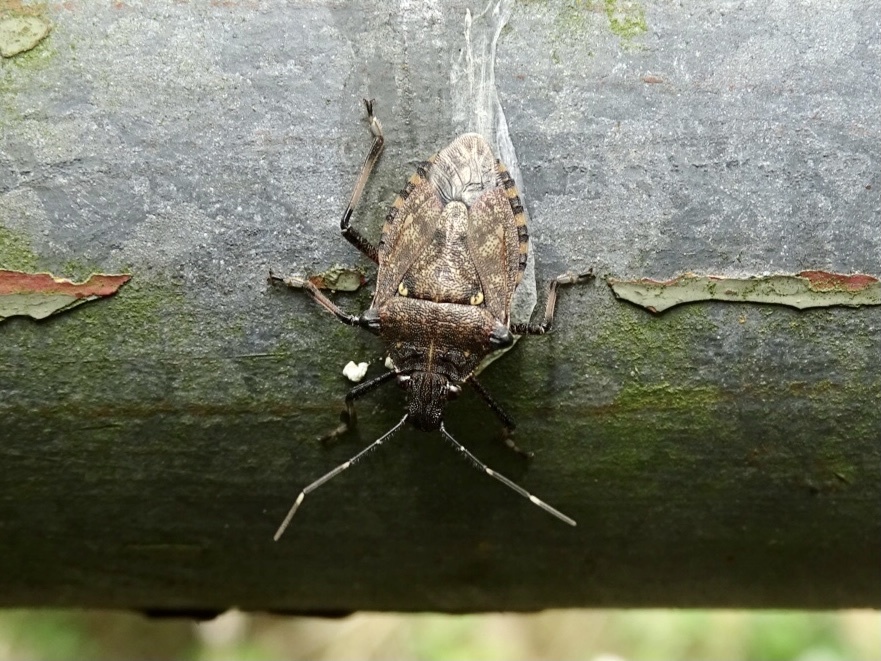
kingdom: Animalia
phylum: Arthropoda
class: Insecta
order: Hemiptera
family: Pentatomidae
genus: Dalpada
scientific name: Dalpada nodifera
